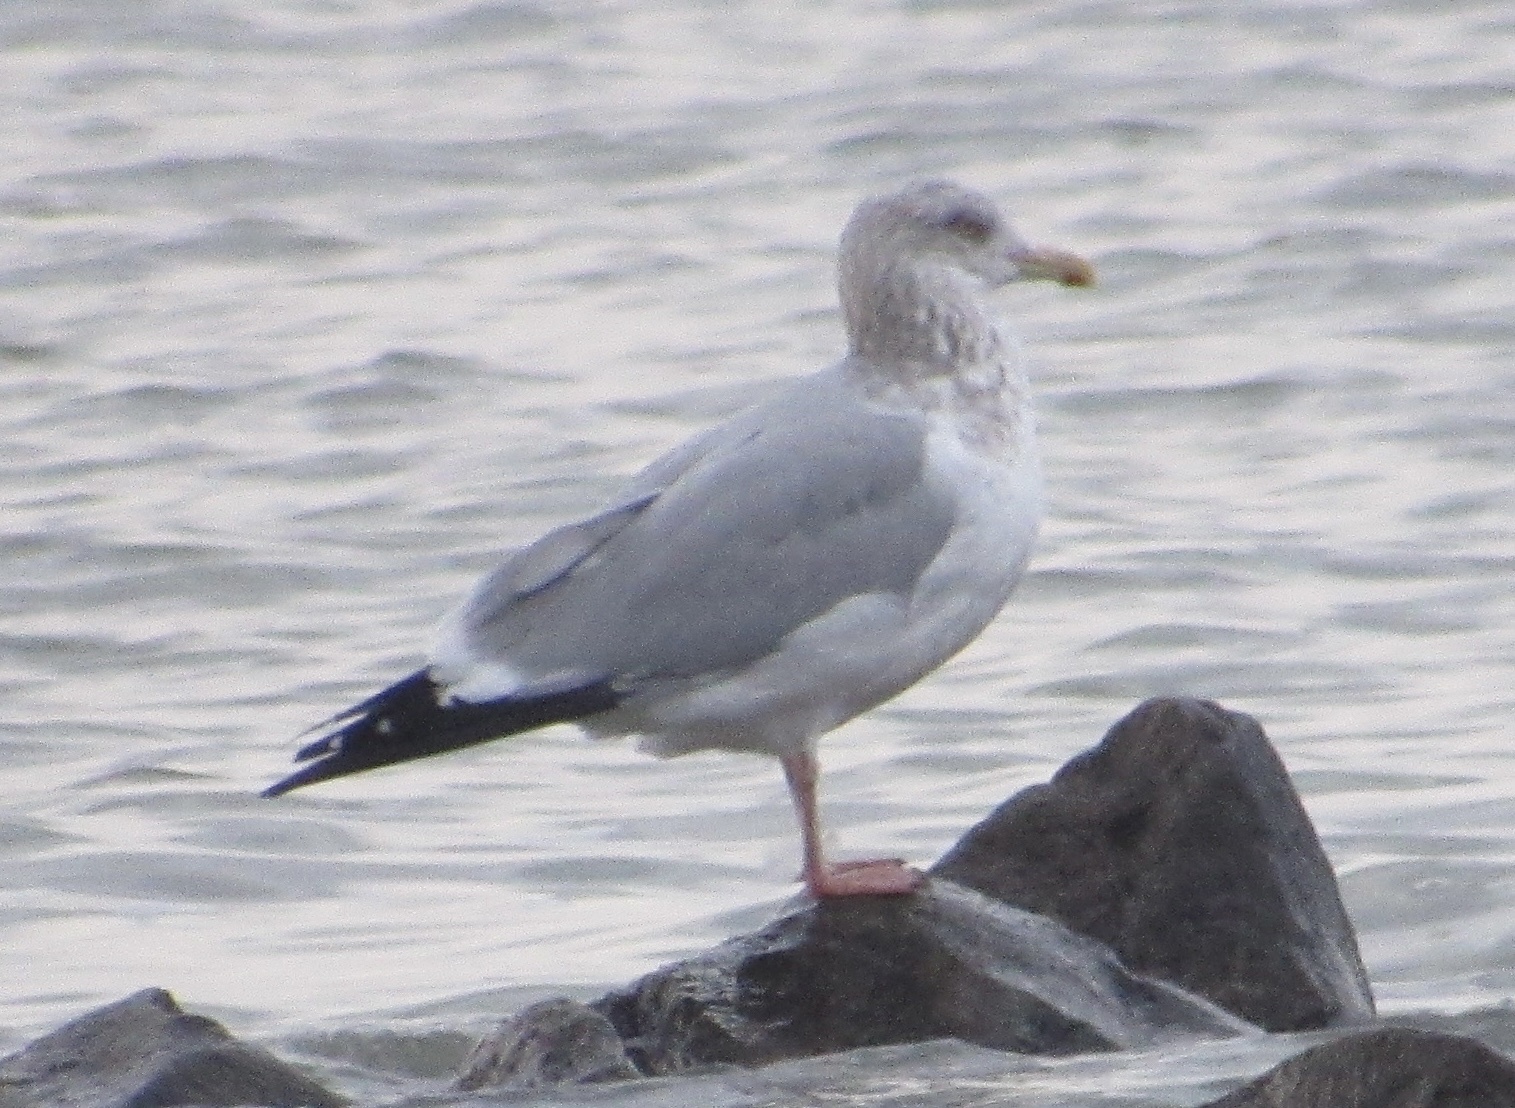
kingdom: Animalia
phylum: Chordata
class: Aves
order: Charadriiformes
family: Laridae
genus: Larus
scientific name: Larus argentatus
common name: Herring gull
